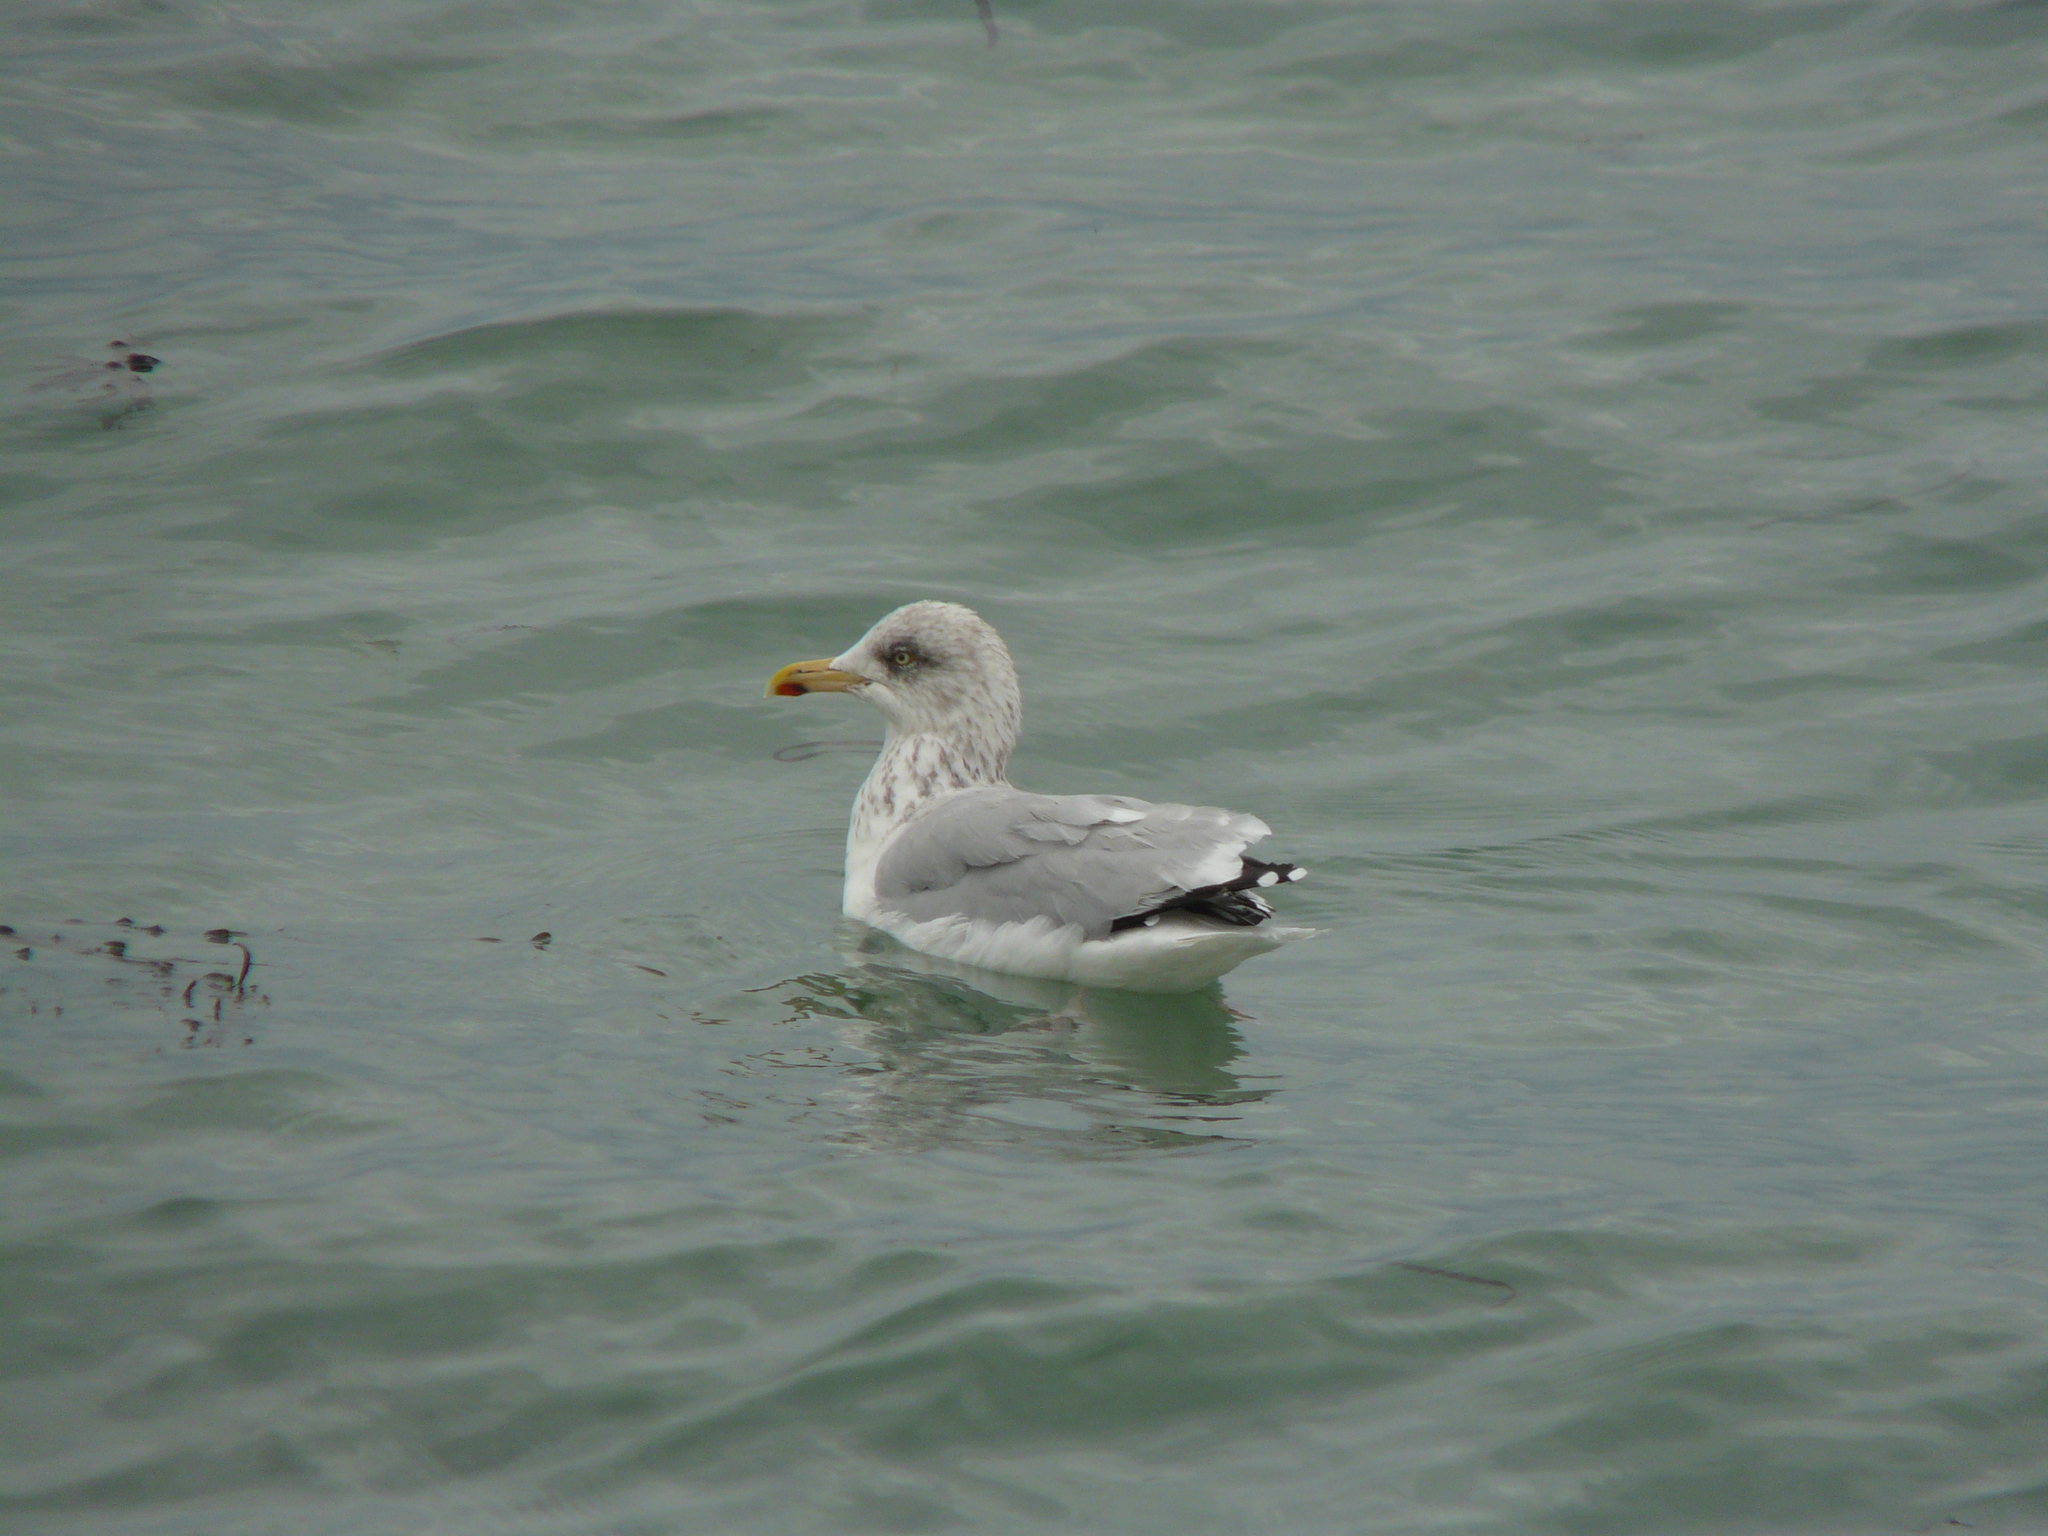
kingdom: Animalia
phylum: Chordata
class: Aves
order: Charadriiformes
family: Laridae
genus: Larus
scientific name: Larus argentatus
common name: Herring gull
